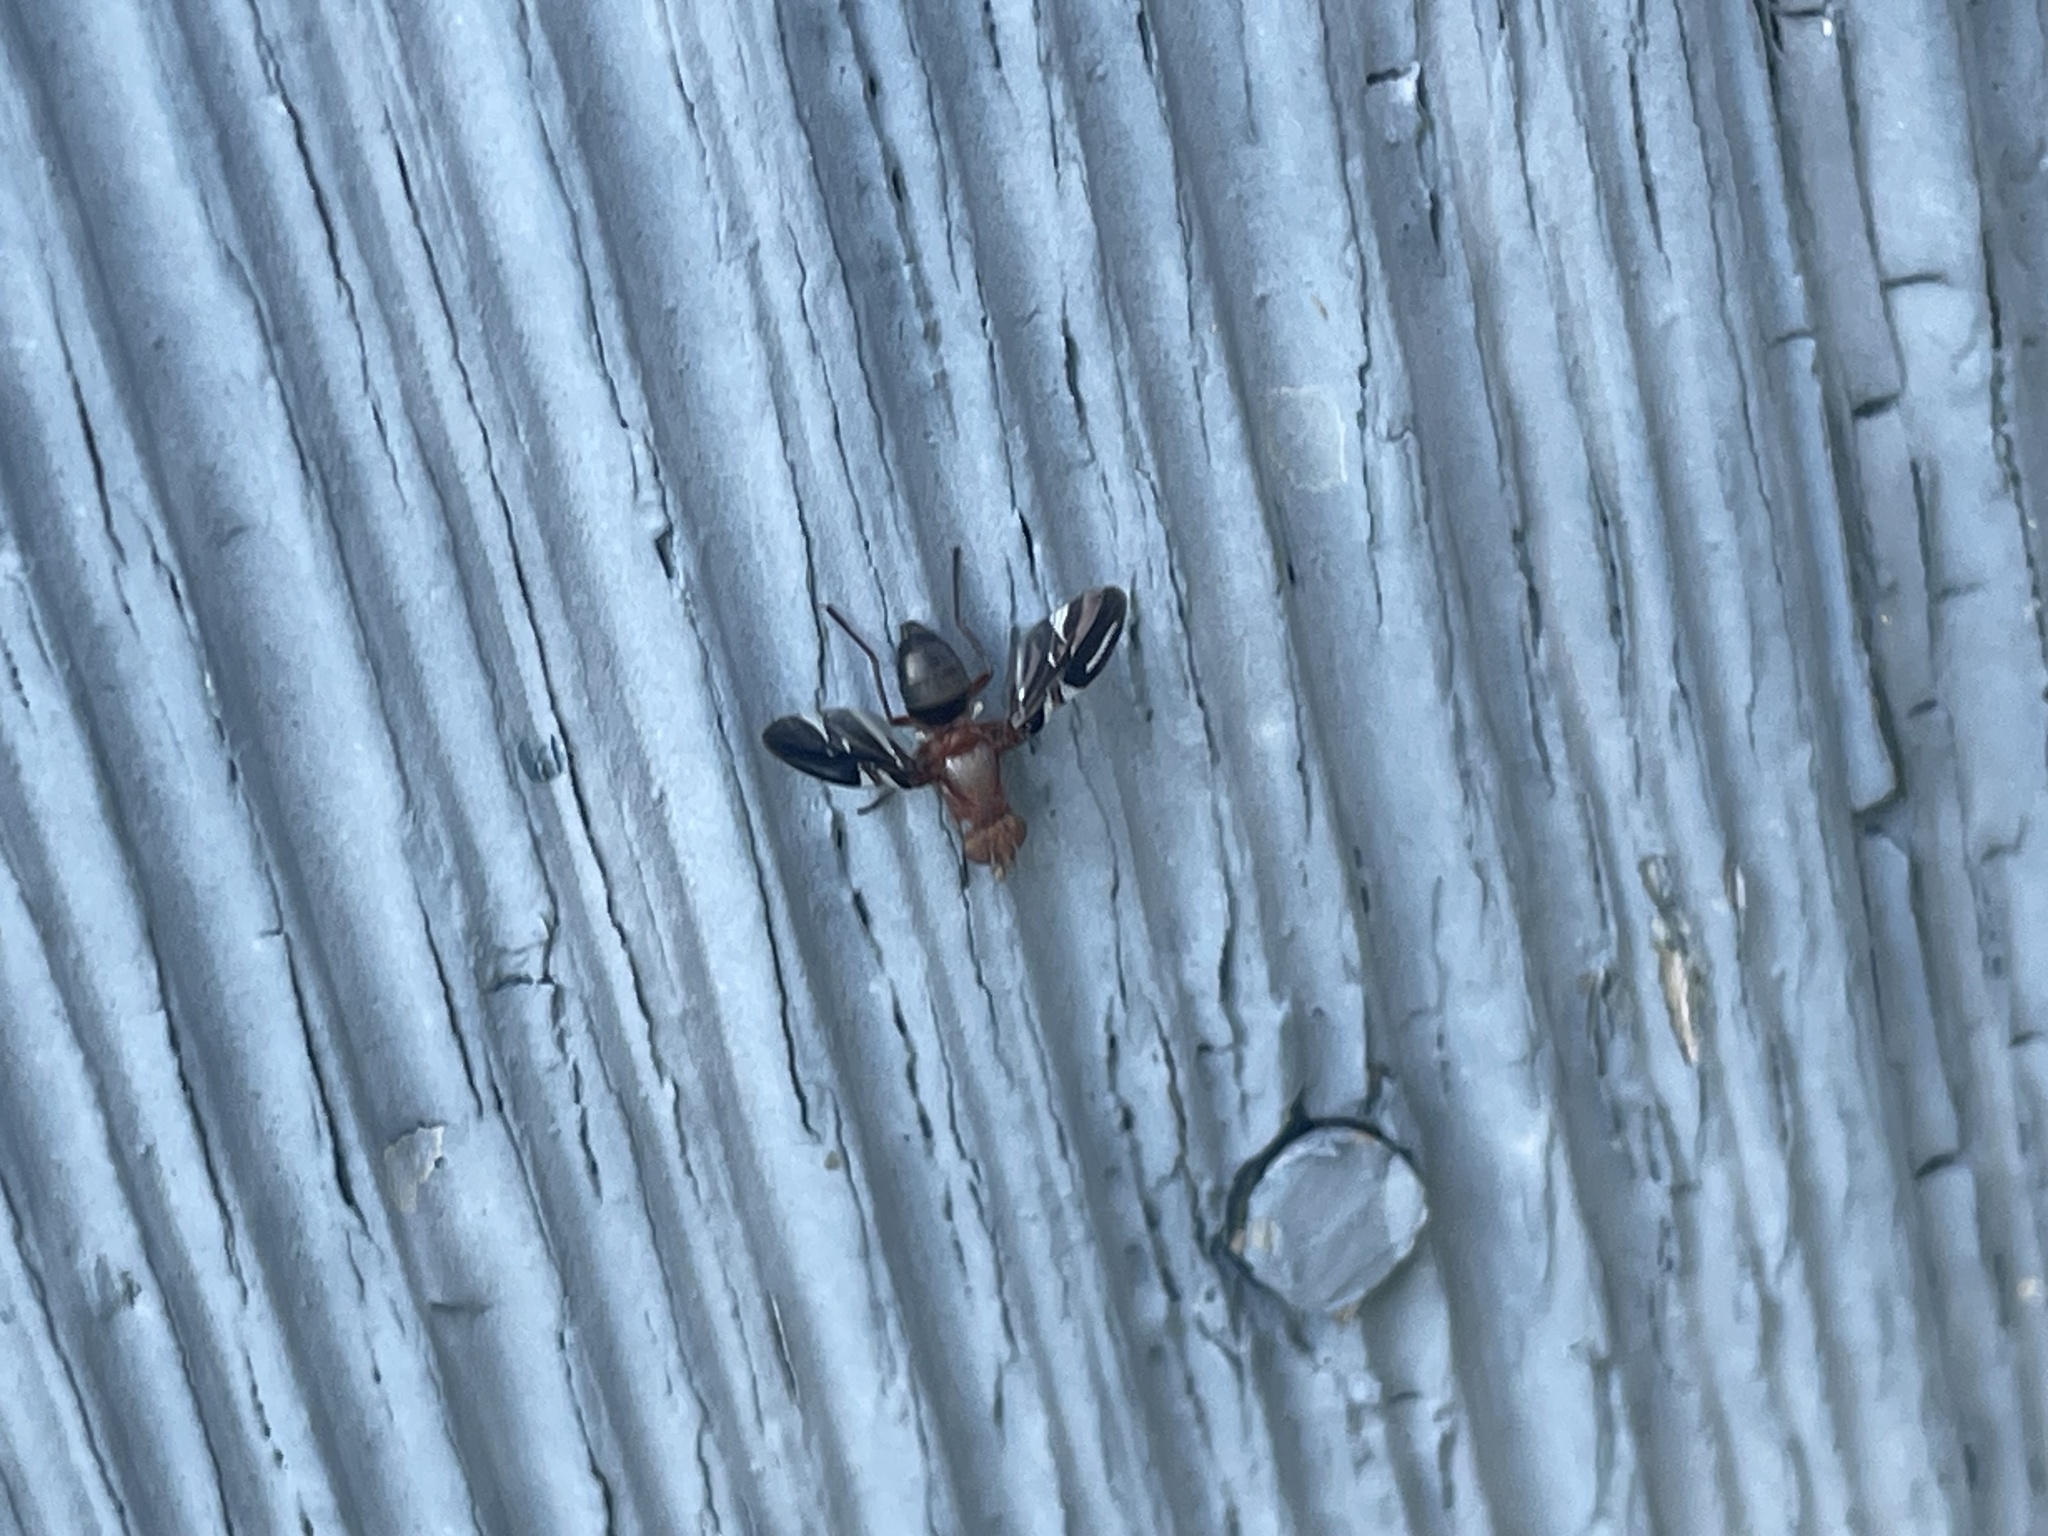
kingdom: Animalia
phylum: Arthropoda
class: Insecta
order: Diptera
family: Ulidiidae
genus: Delphinia
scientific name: Delphinia picta
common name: Common picture-winged fly
